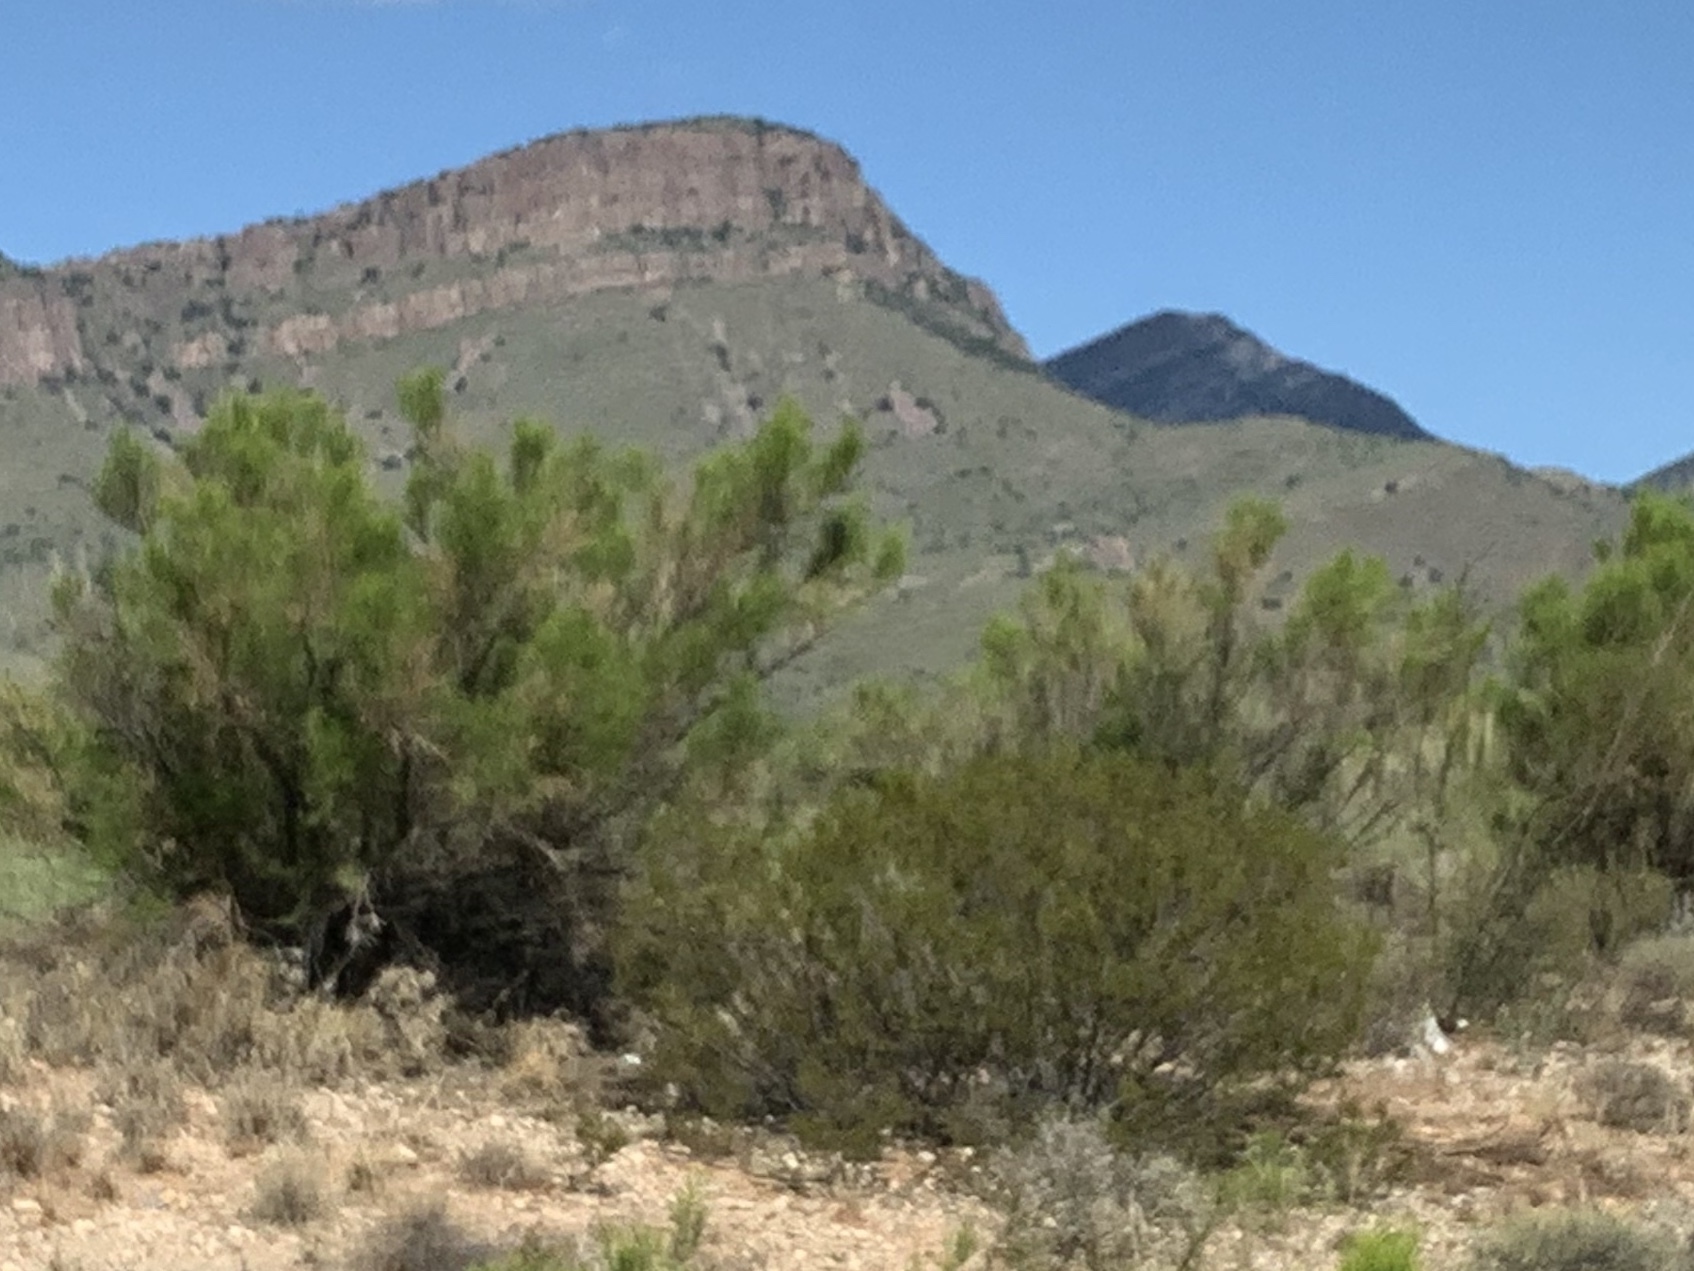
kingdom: Plantae
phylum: Tracheophyta
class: Magnoliopsida
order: Asterales
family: Asteraceae
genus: Baccharis
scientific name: Baccharis sarothroides
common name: Desert-broom
